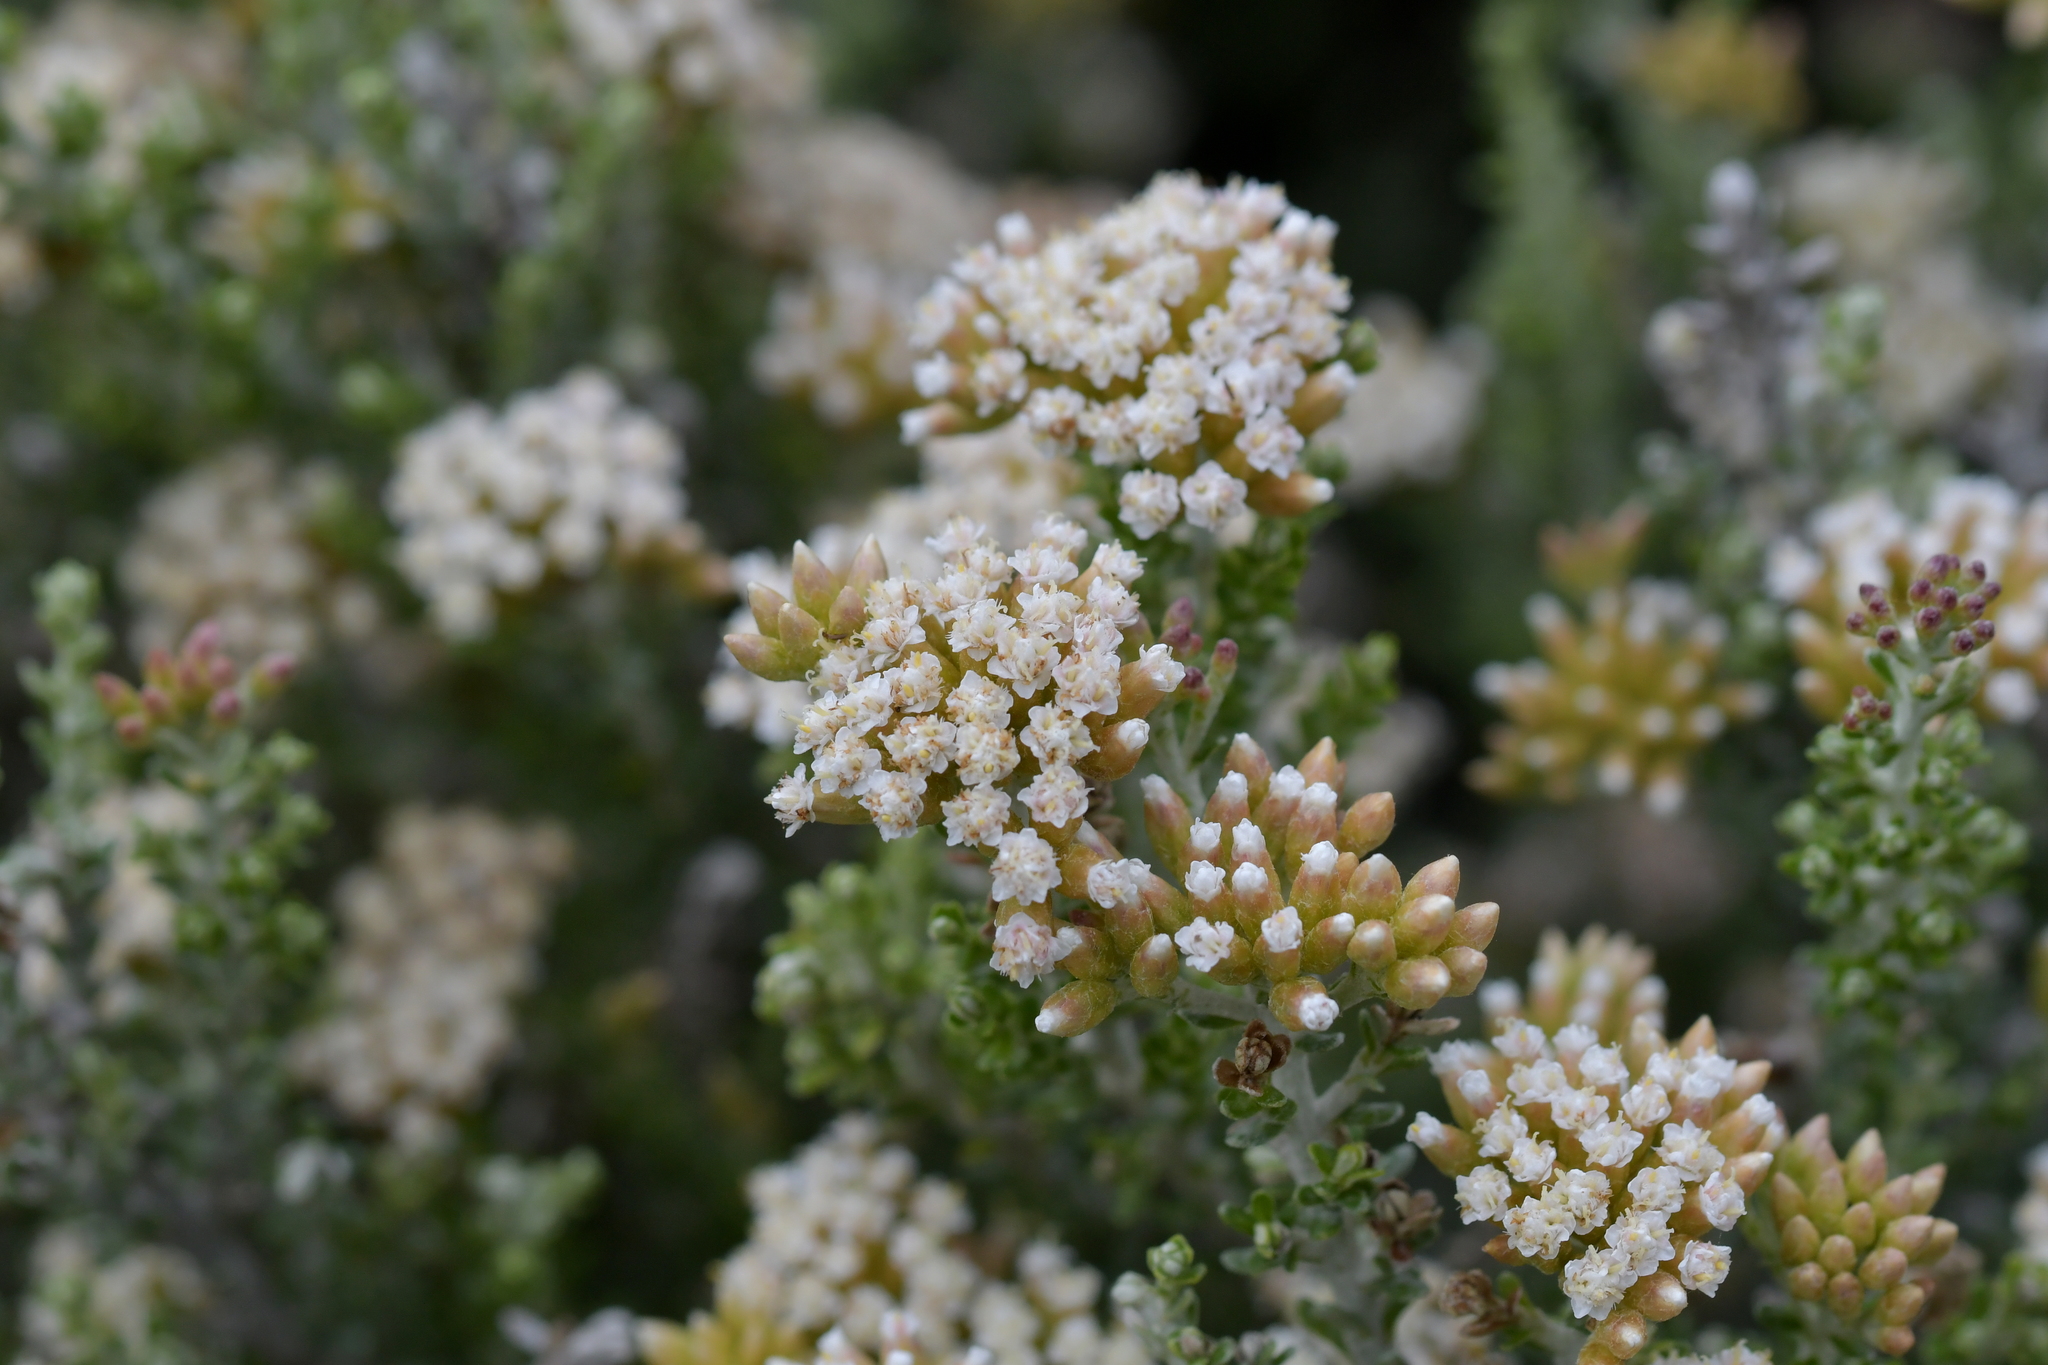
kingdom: Plantae
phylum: Tracheophyta
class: Magnoliopsida
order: Asterales
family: Asteraceae
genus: Ozothamnus
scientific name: Ozothamnus leptophyllus
